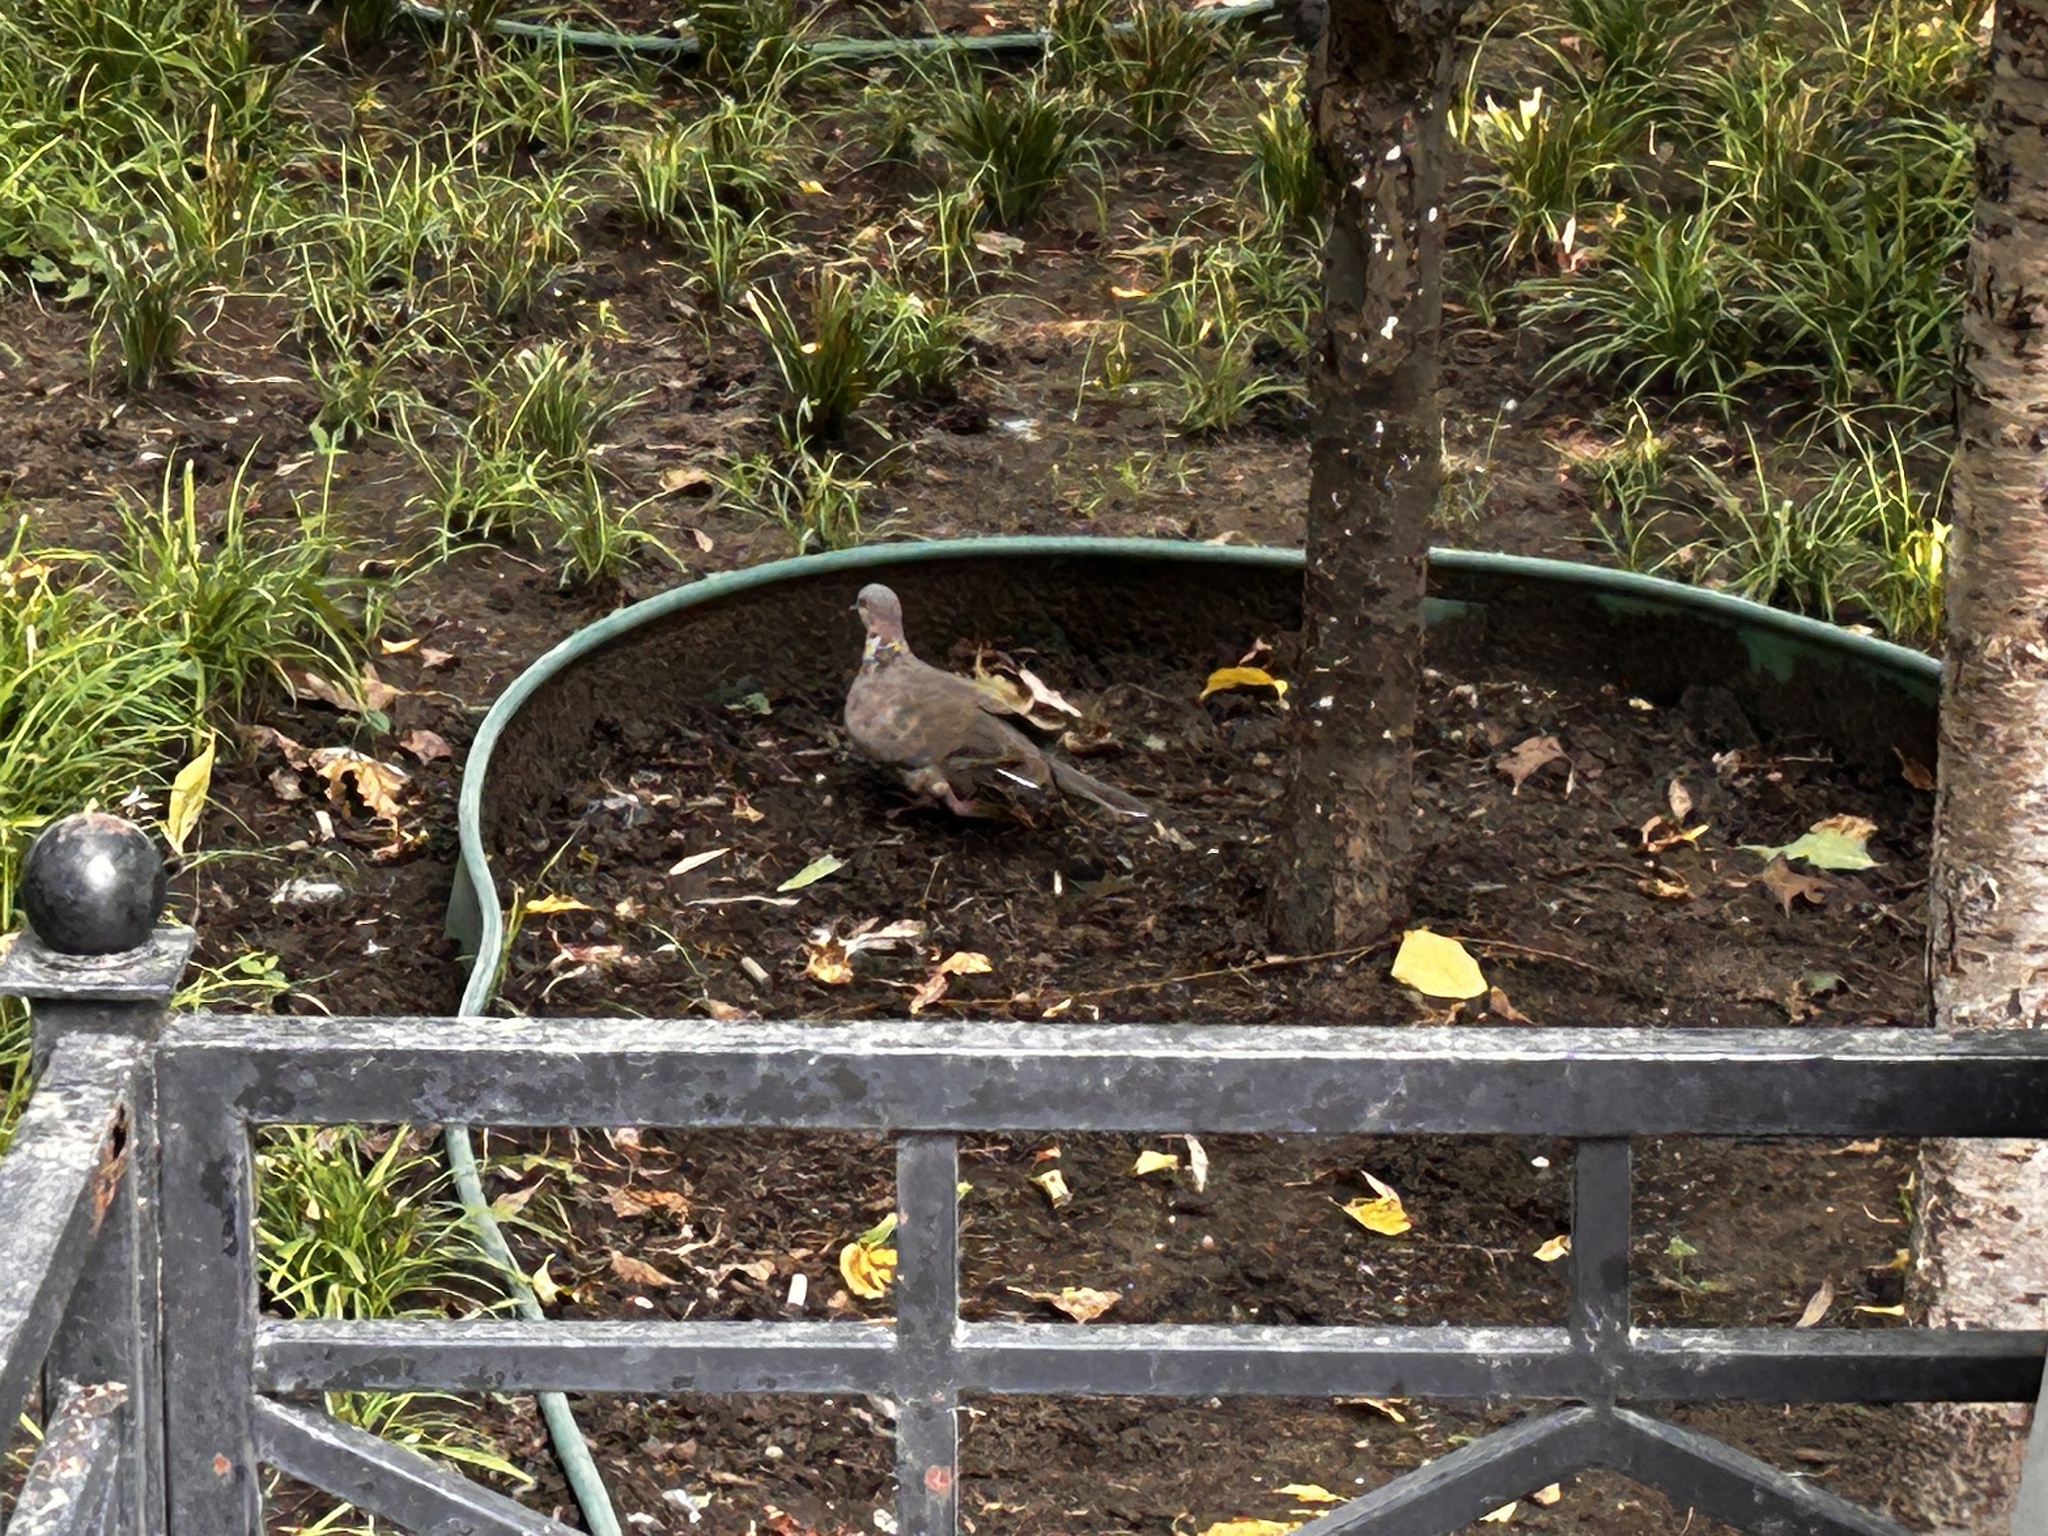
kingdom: Animalia
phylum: Chordata
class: Aves
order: Columbiformes
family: Columbidae
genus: Spilopelia
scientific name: Spilopelia chinensis
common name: Spotted dove
